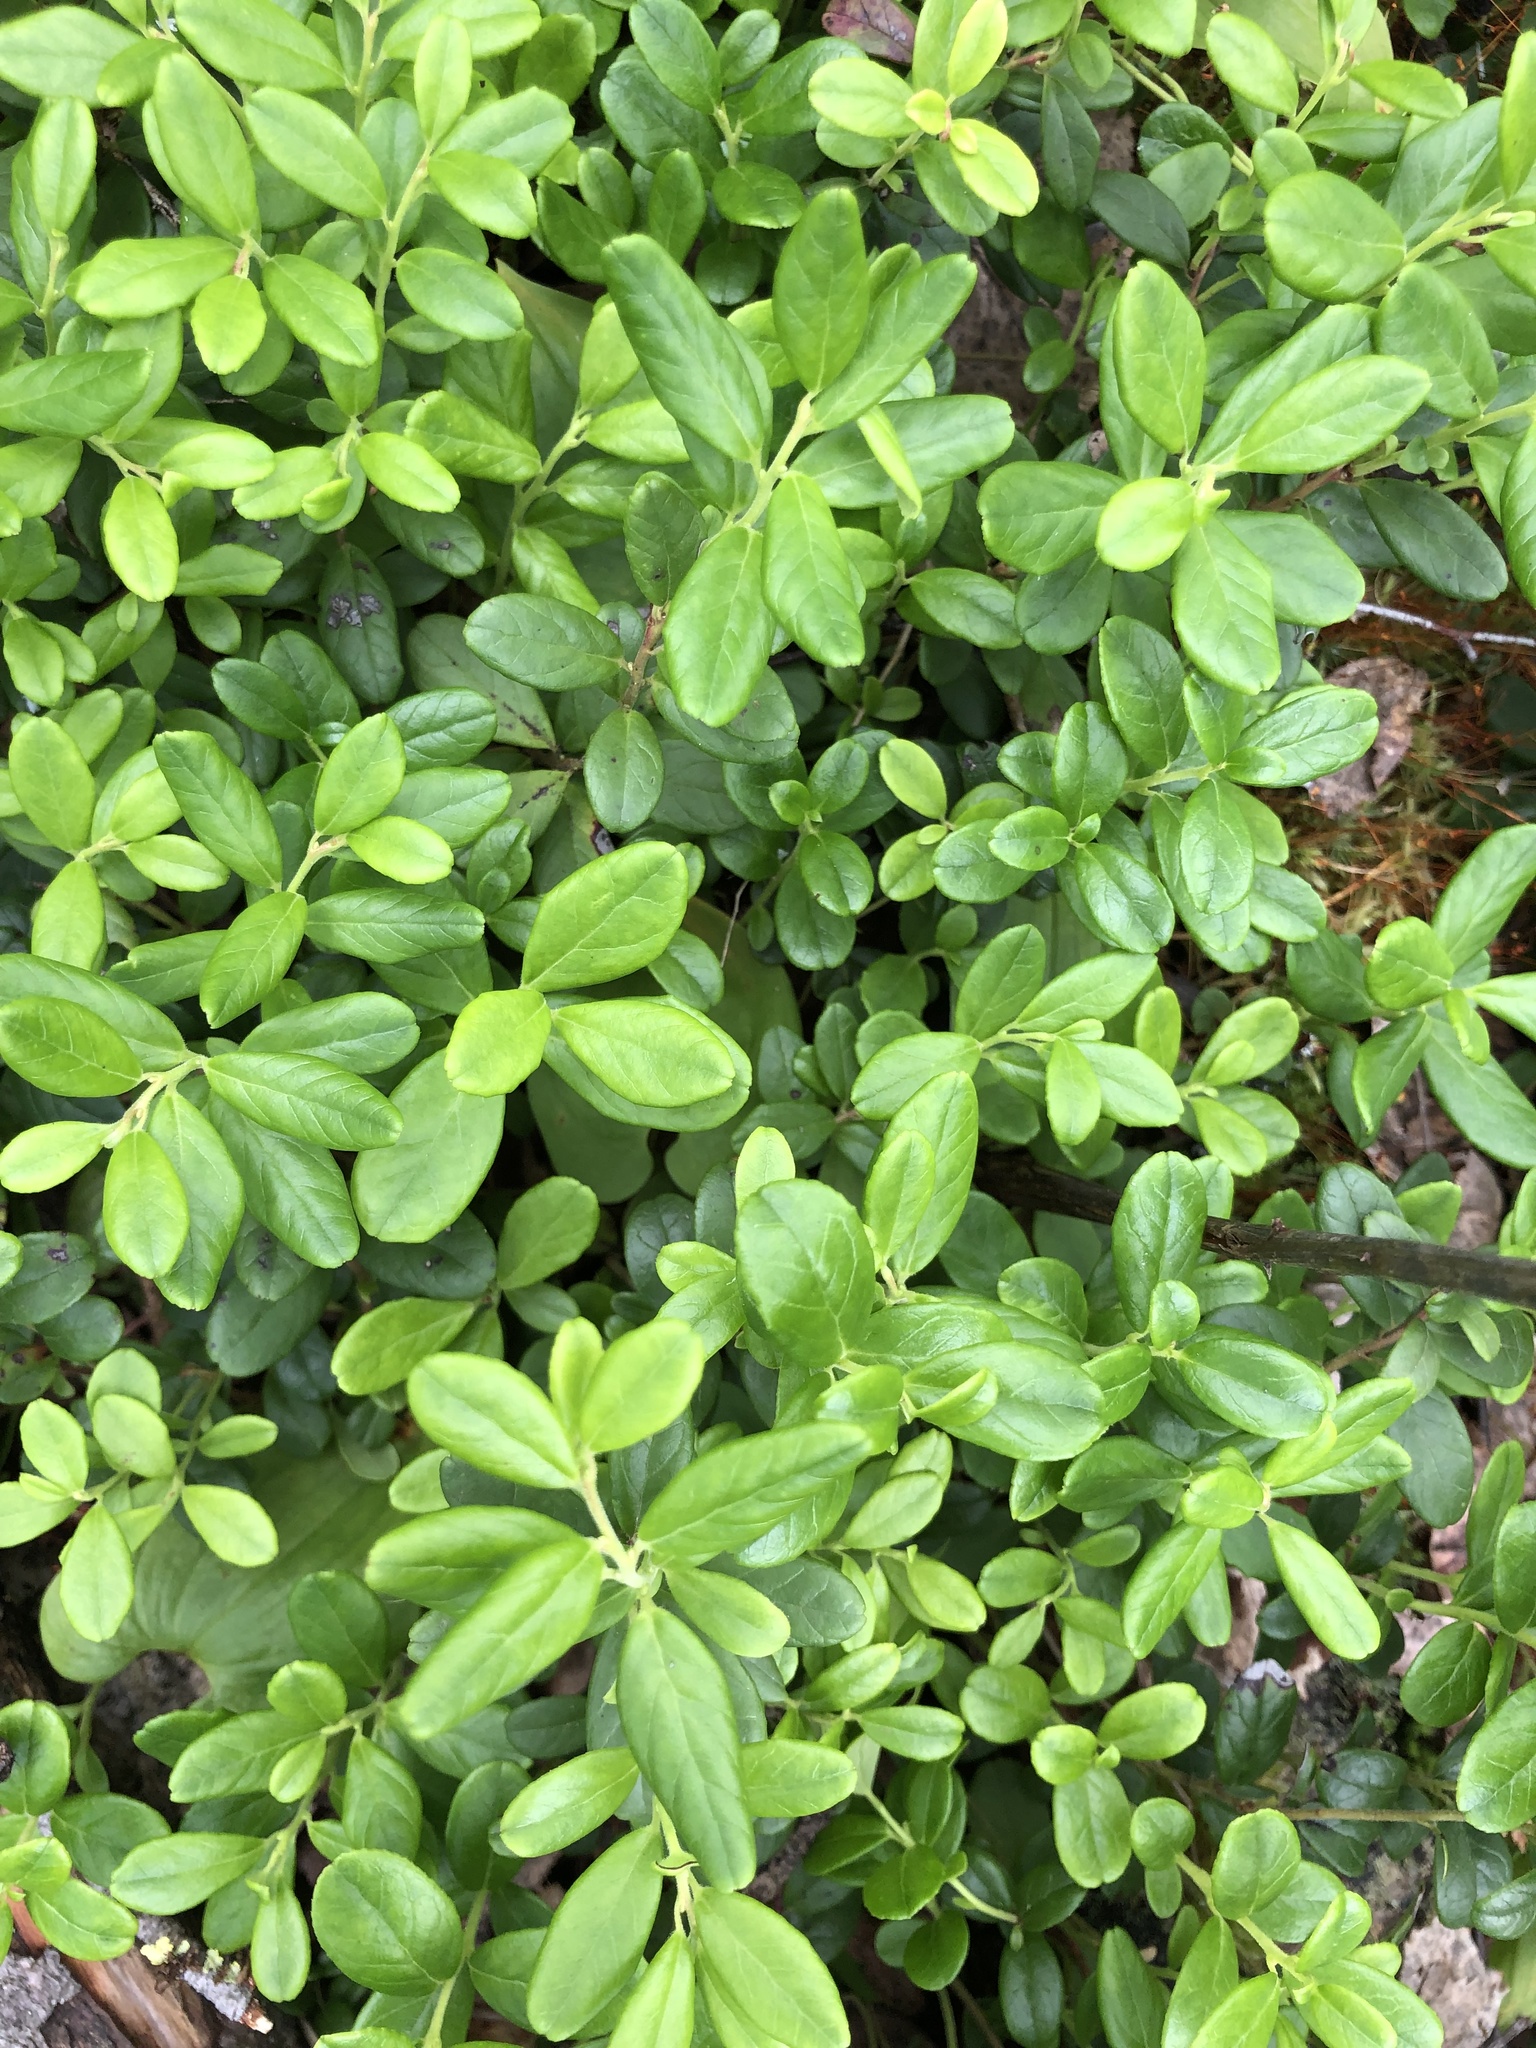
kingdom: Plantae
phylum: Tracheophyta
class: Magnoliopsida
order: Ericales
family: Ericaceae
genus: Vaccinium
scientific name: Vaccinium vitis-idaea
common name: Cowberry
